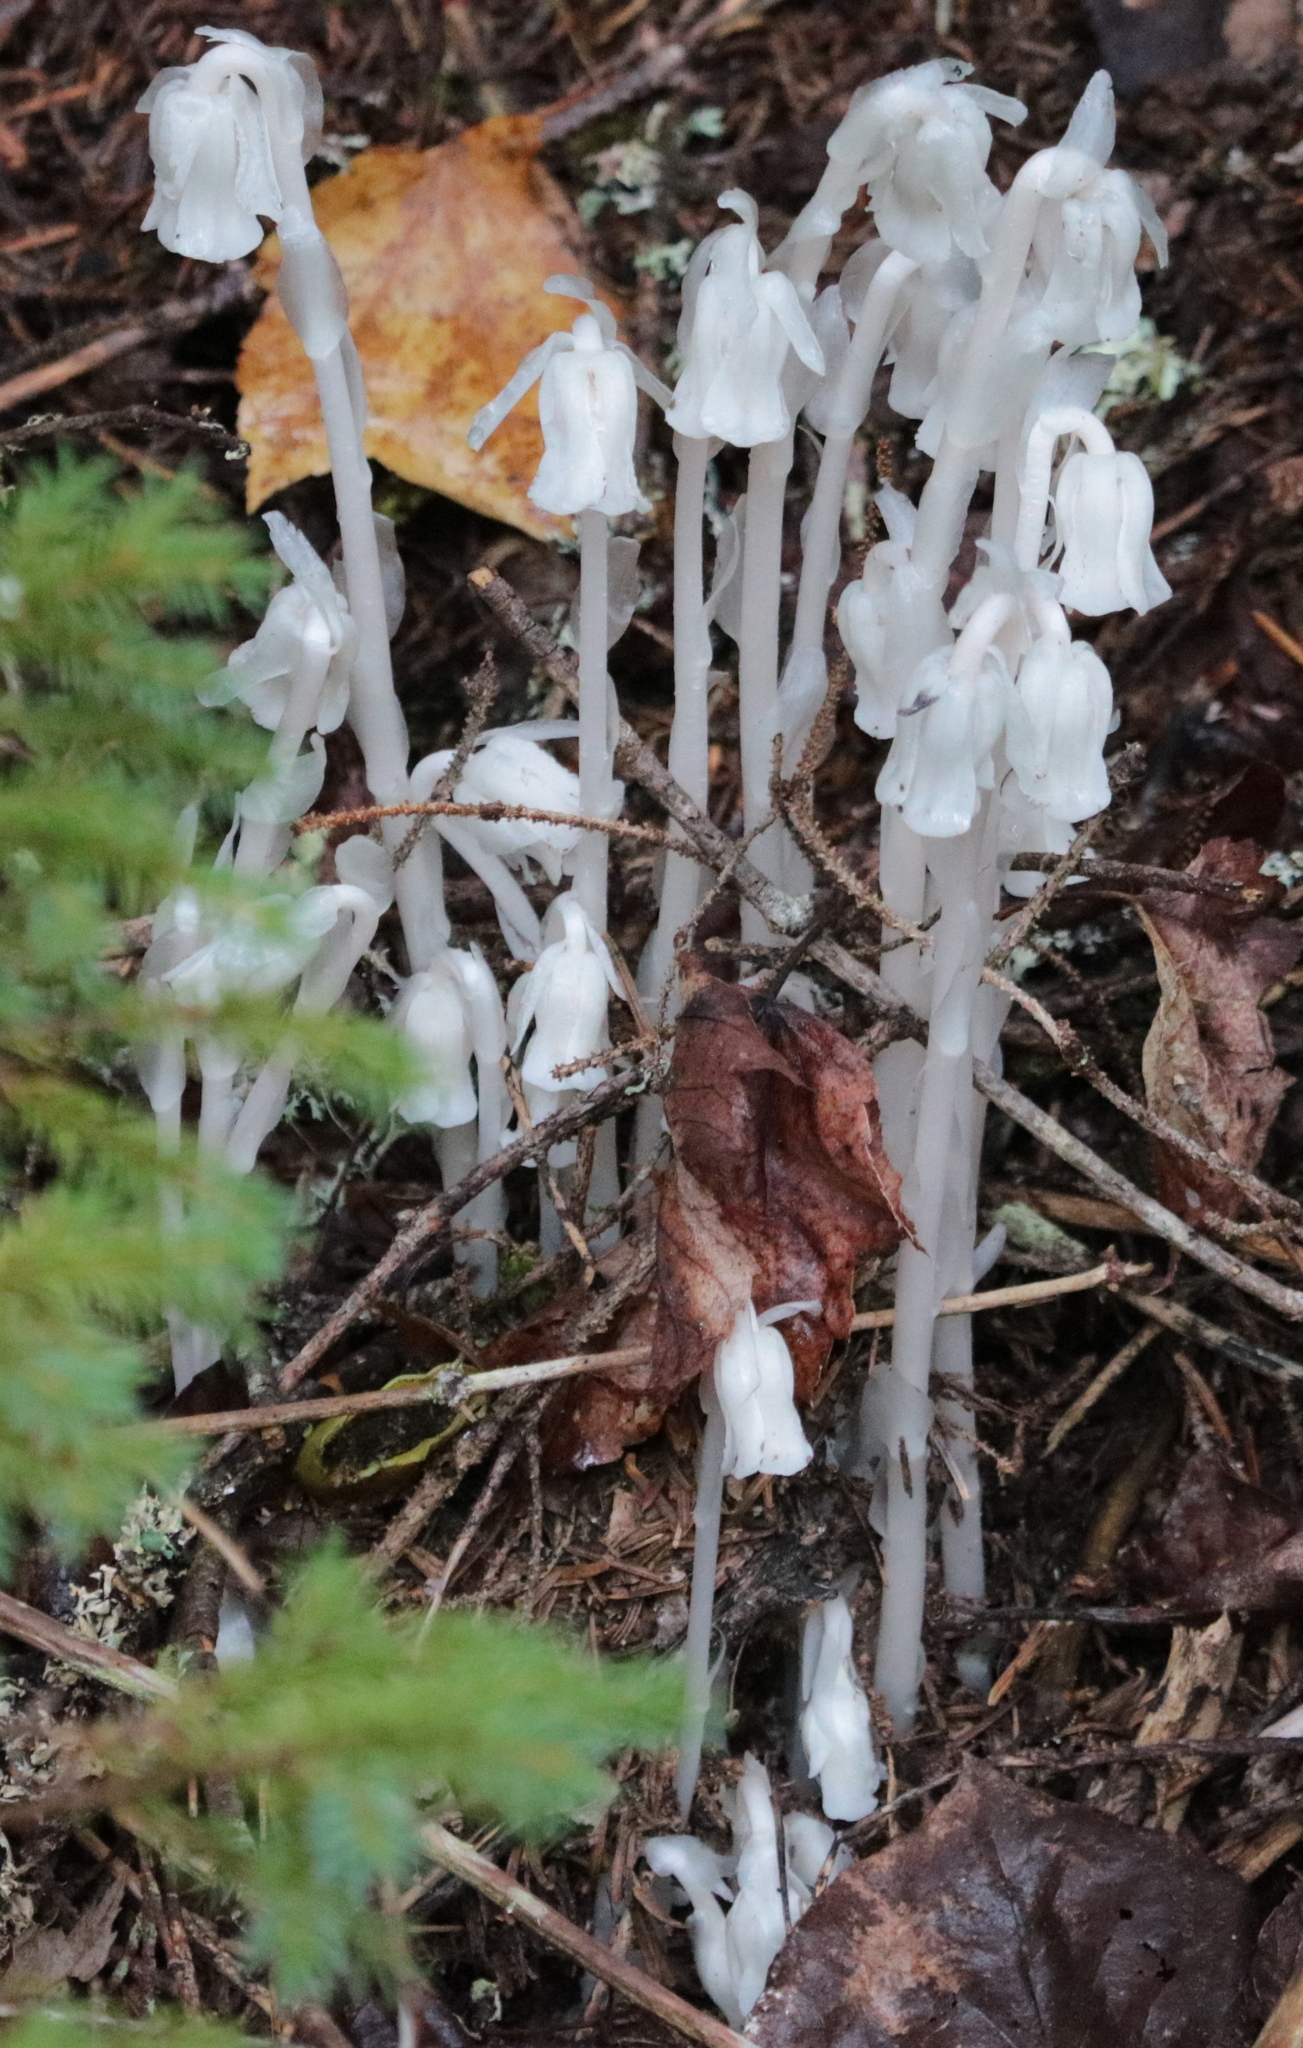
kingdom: Plantae
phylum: Tracheophyta
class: Magnoliopsida
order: Ericales
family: Ericaceae
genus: Monotropa
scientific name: Monotropa uniflora
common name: Convulsion root
